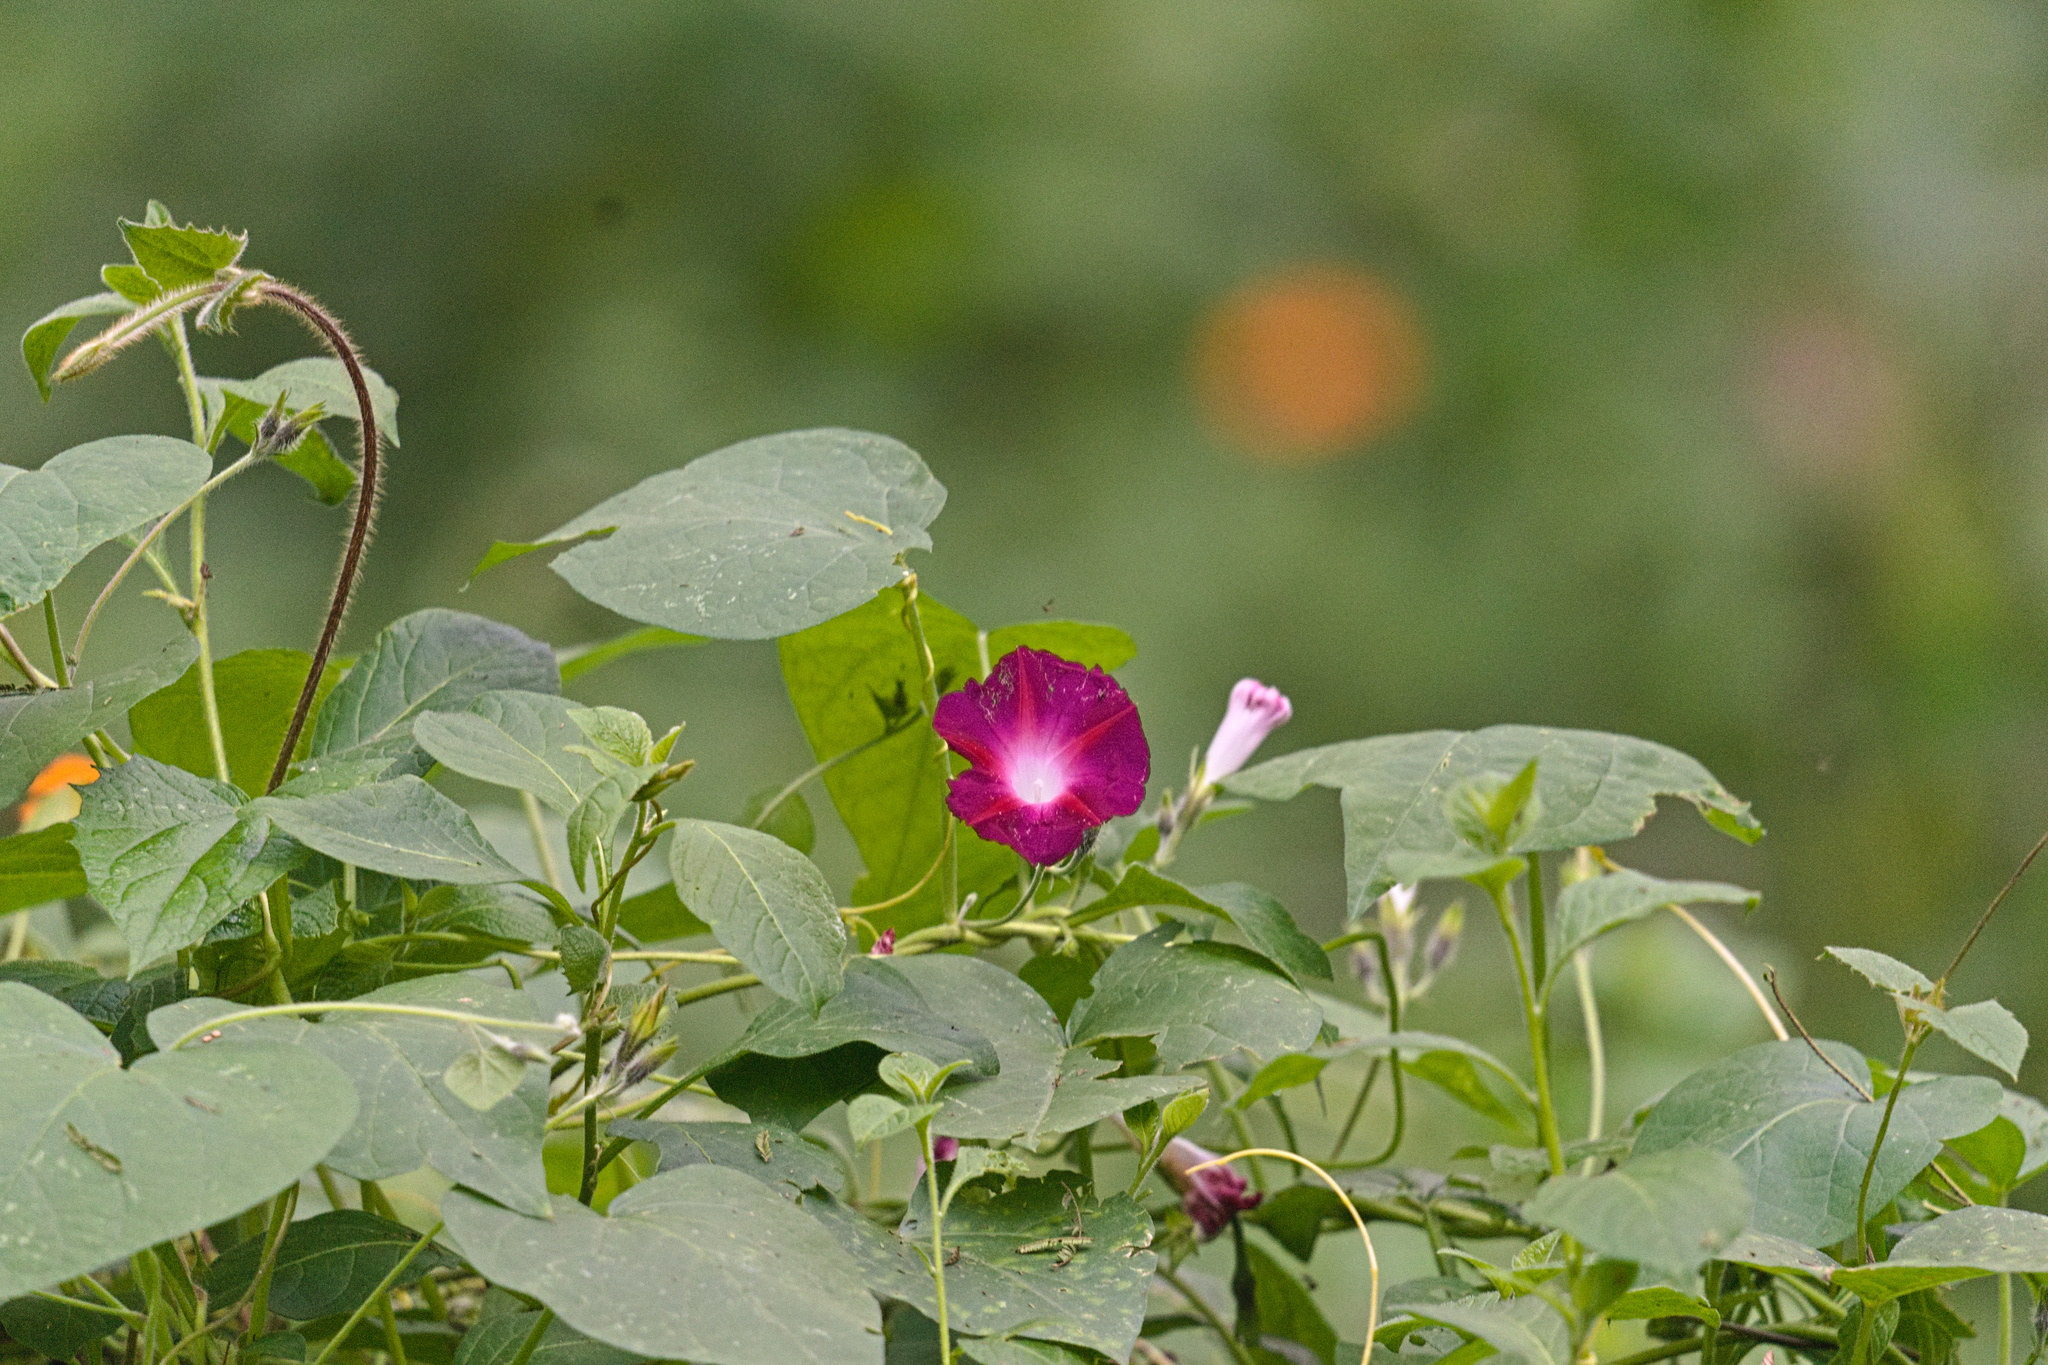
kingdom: Plantae
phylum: Tracheophyta
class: Magnoliopsida
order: Solanales
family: Convolvulaceae
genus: Ipomoea
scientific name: Ipomoea purpurea
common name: Common morning-glory
